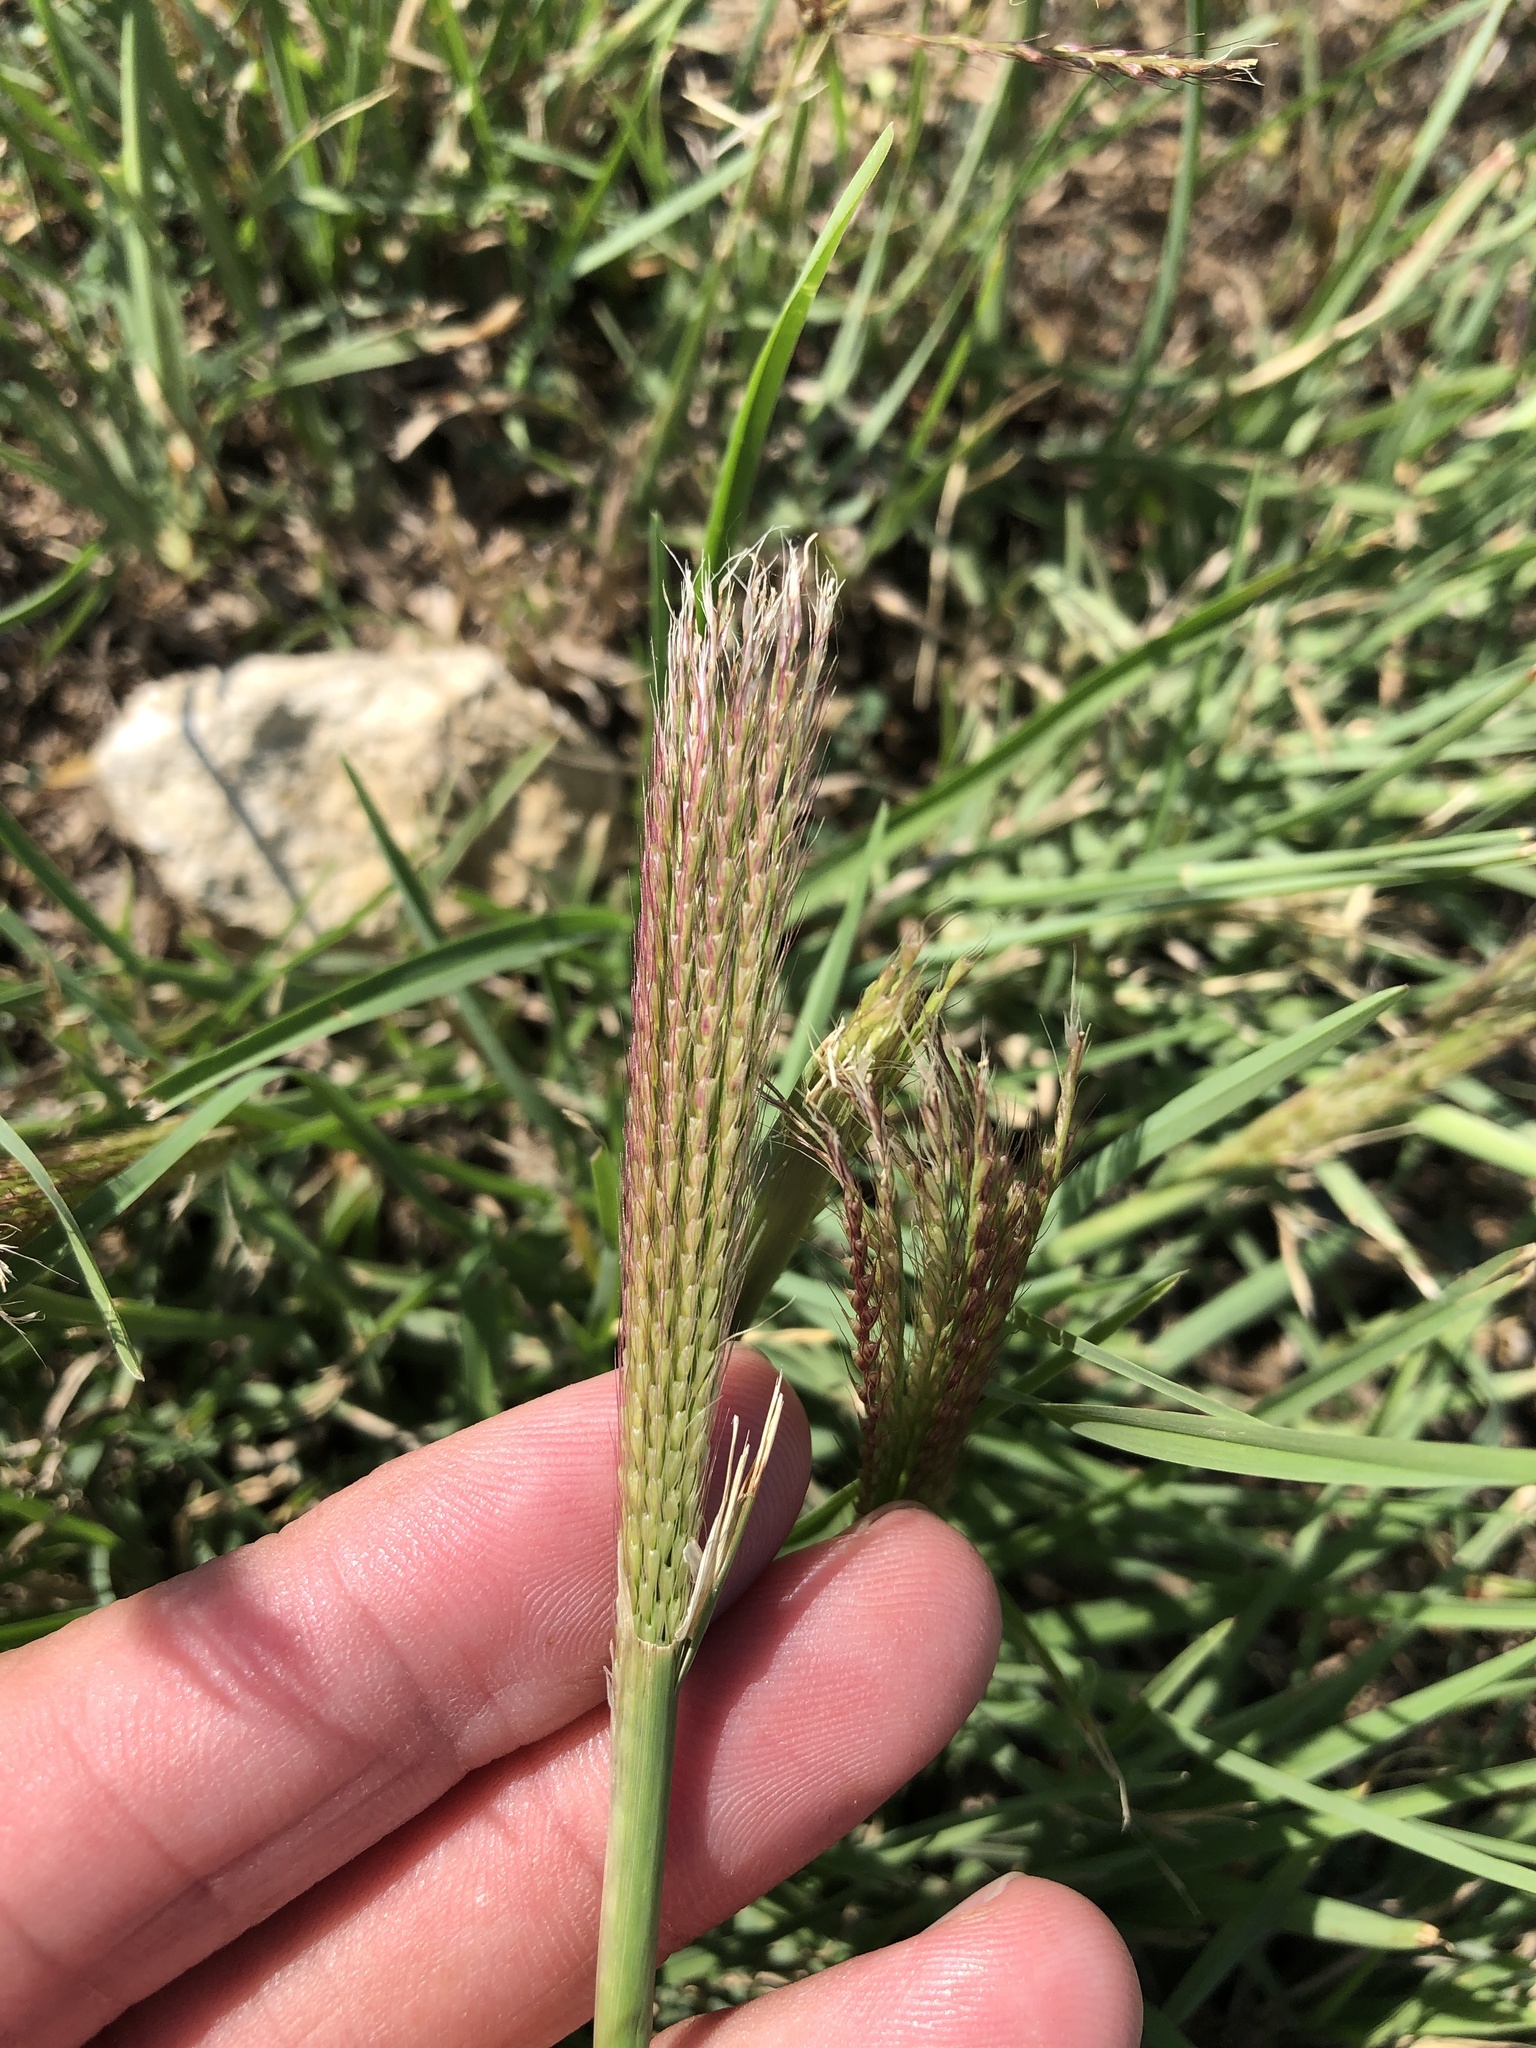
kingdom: Plantae
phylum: Tracheophyta
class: Liliopsida
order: Poales
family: Poaceae
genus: Chloris
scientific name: Chloris verticillata
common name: Tumble windmill grass
